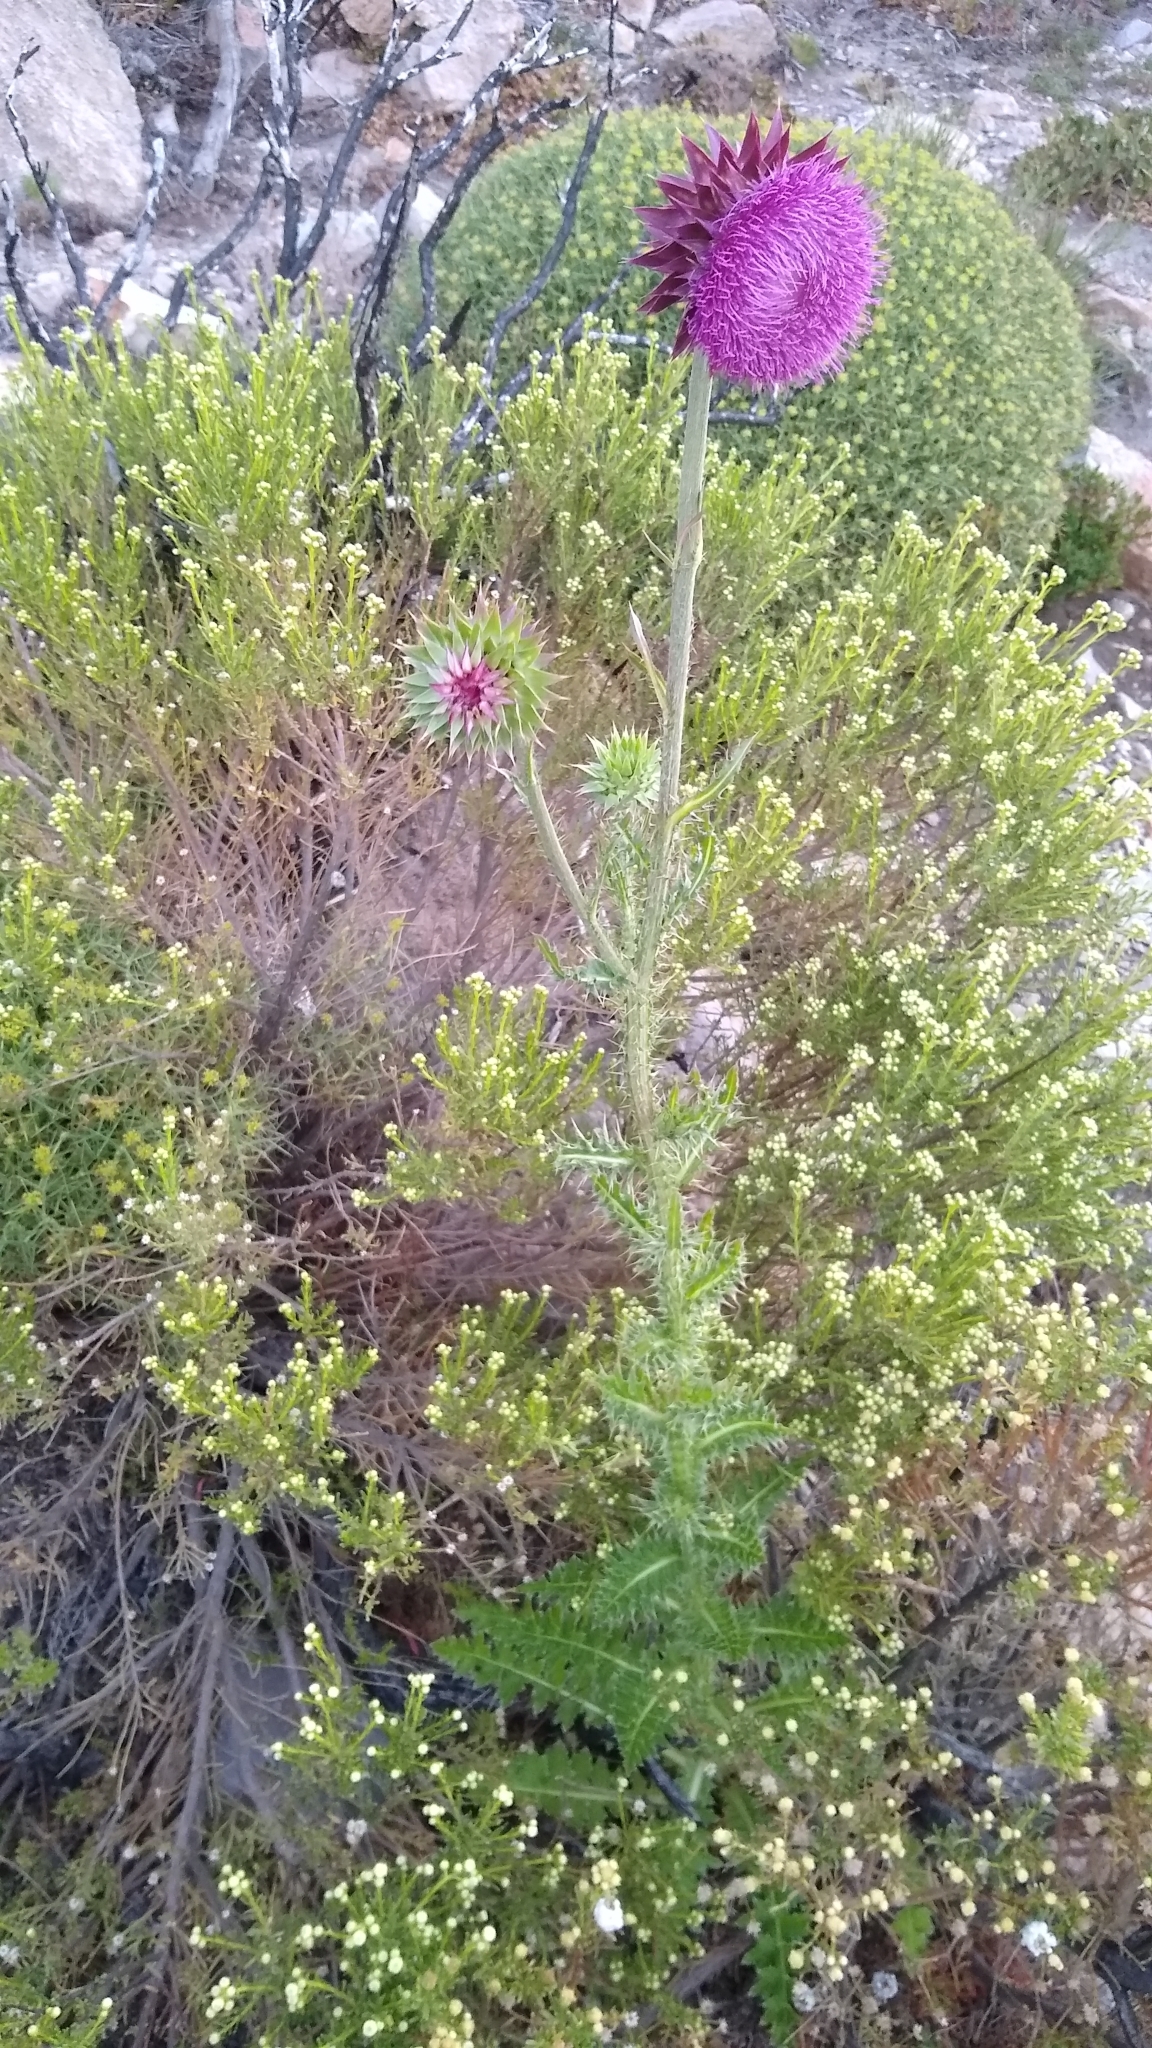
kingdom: Plantae
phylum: Tracheophyta
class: Magnoliopsida
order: Asterales
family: Asteraceae
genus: Carduus
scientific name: Carduus nutans
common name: Musk thistle
